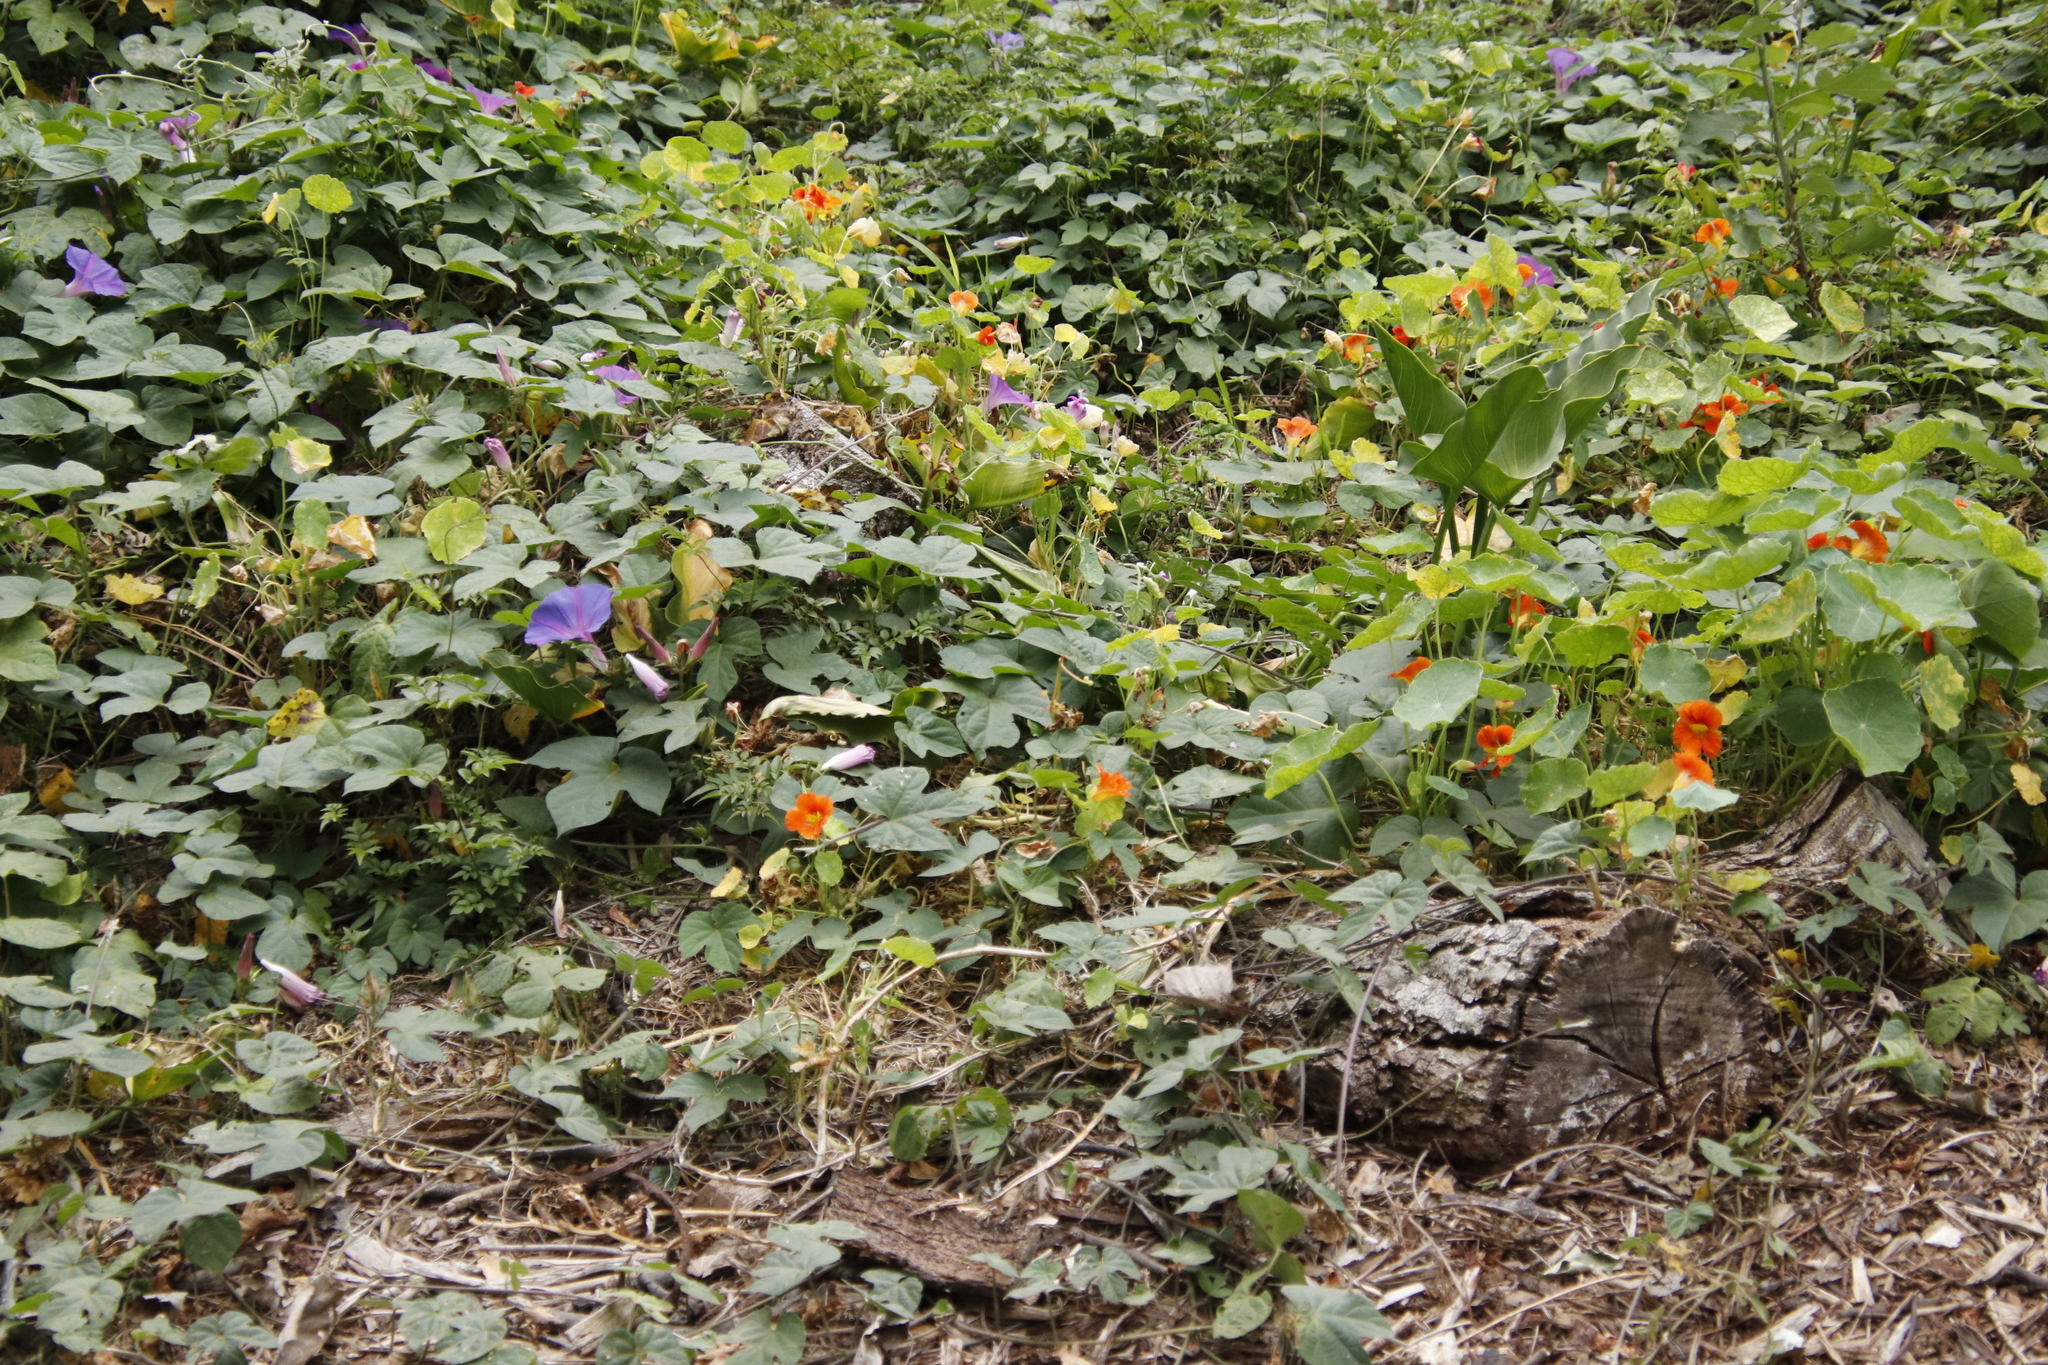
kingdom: Plantae
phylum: Tracheophyta
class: Magnoliopsida
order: Solanales
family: Convolvulaceae
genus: Ipomoea
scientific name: Ipomoea indica
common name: Blue dawnflower
